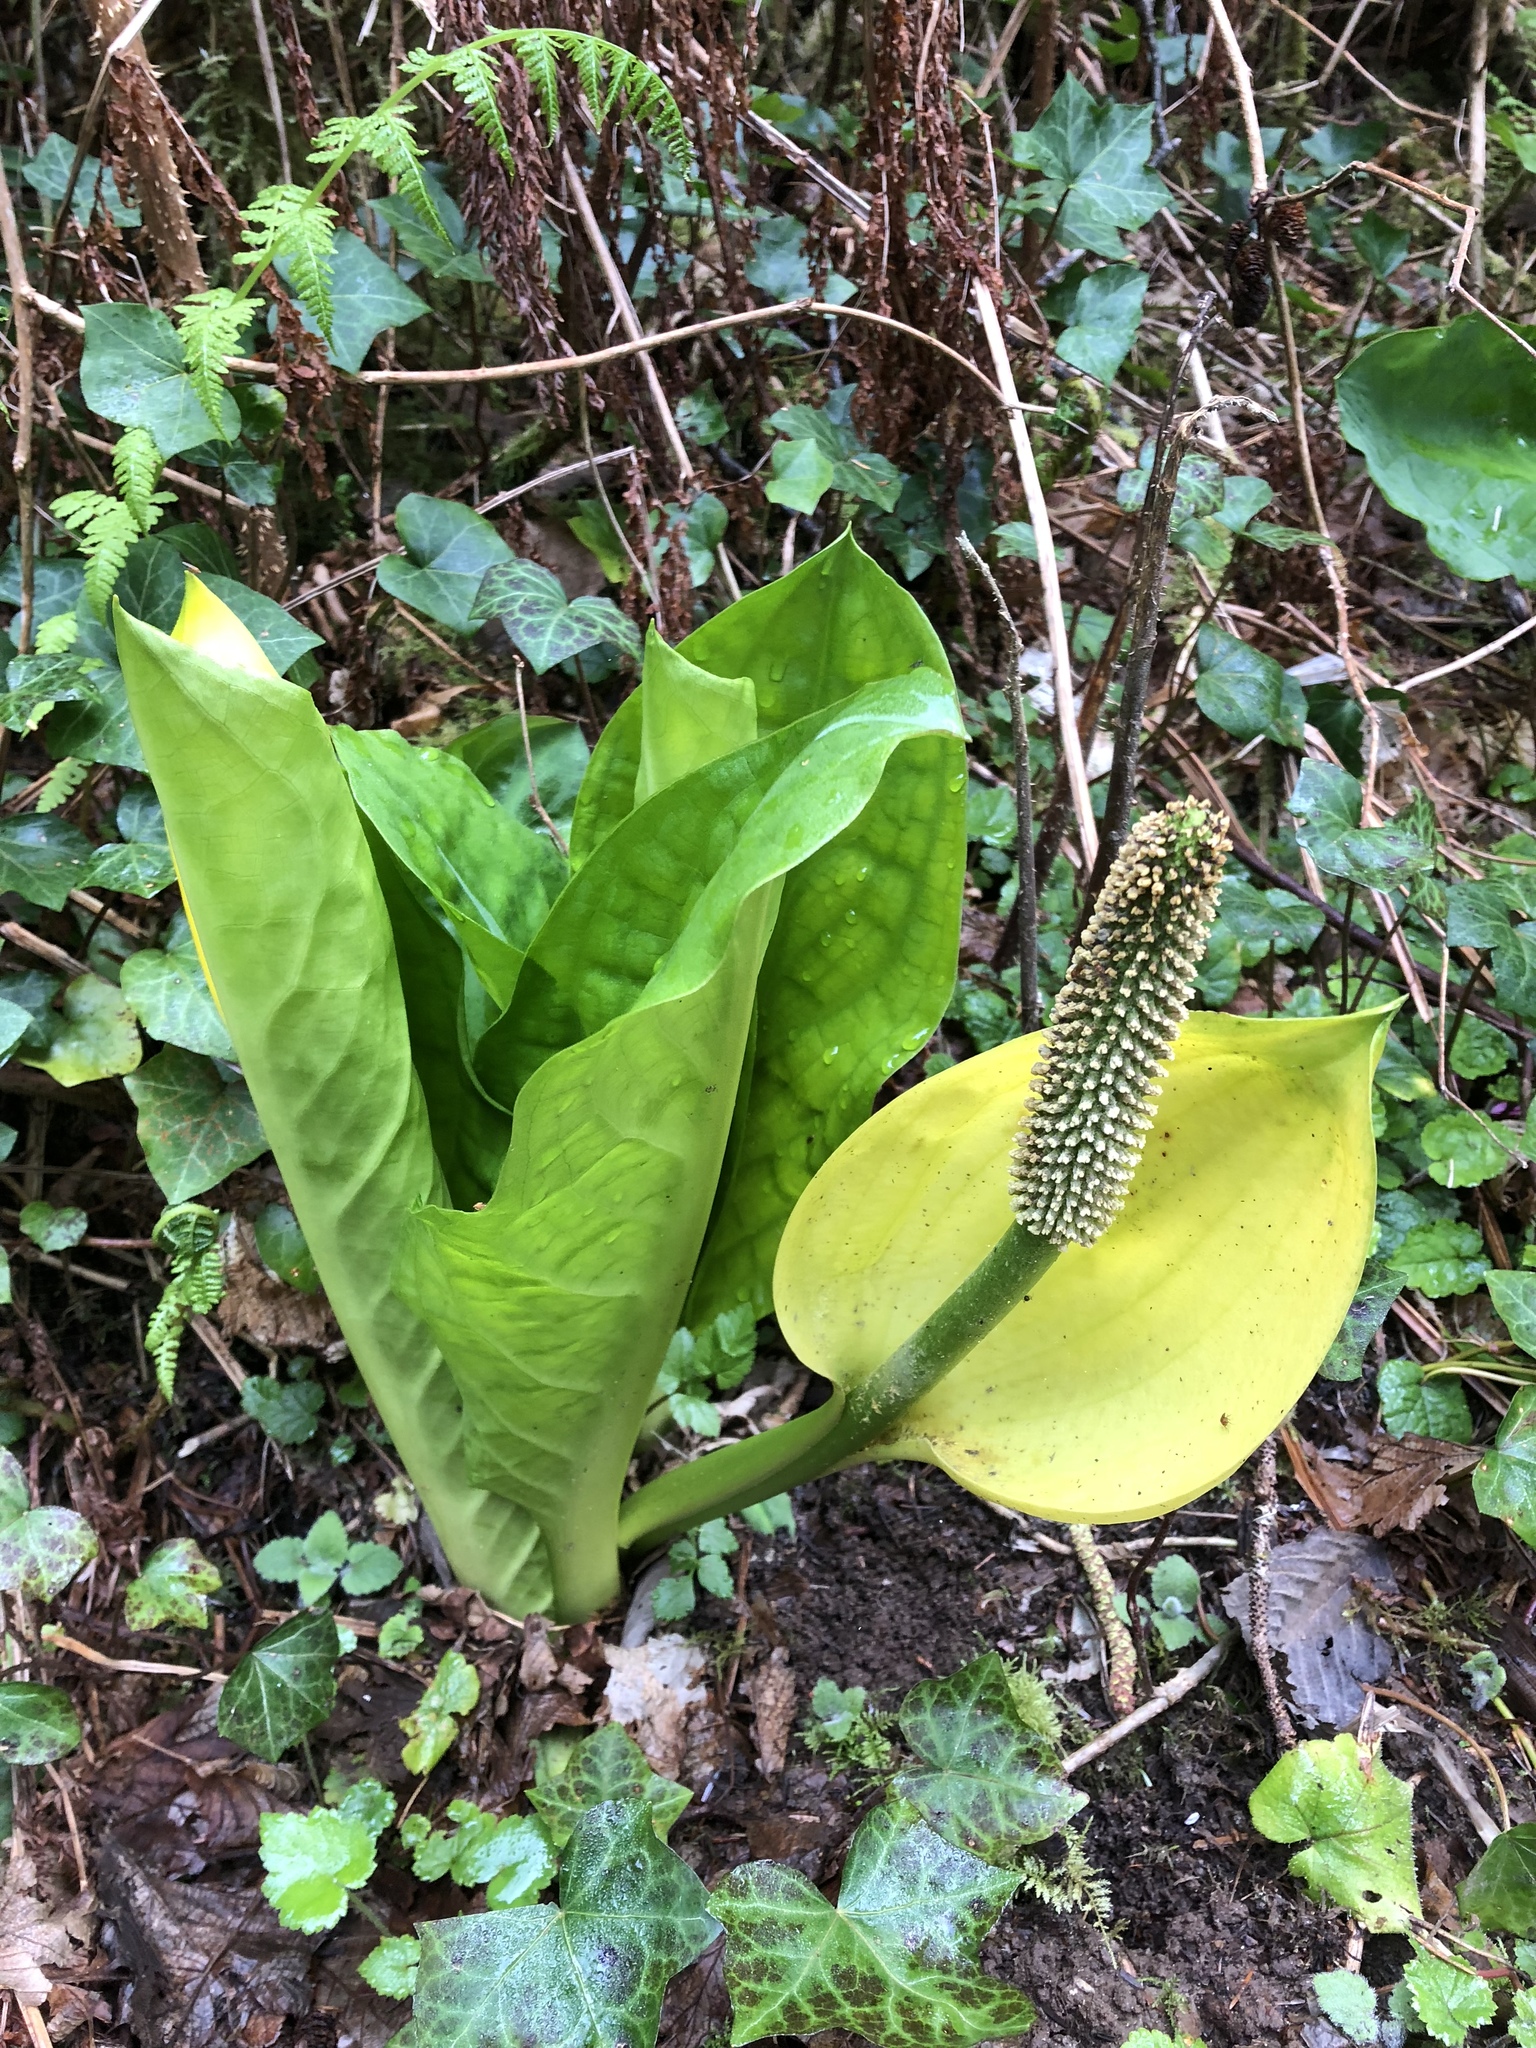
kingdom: Plantae
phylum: Tracheophyta
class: Liliopsida
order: Alismatales
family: Araceae
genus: Lysichiton
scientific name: Lysichiton americanus
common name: American skunk cabbage
